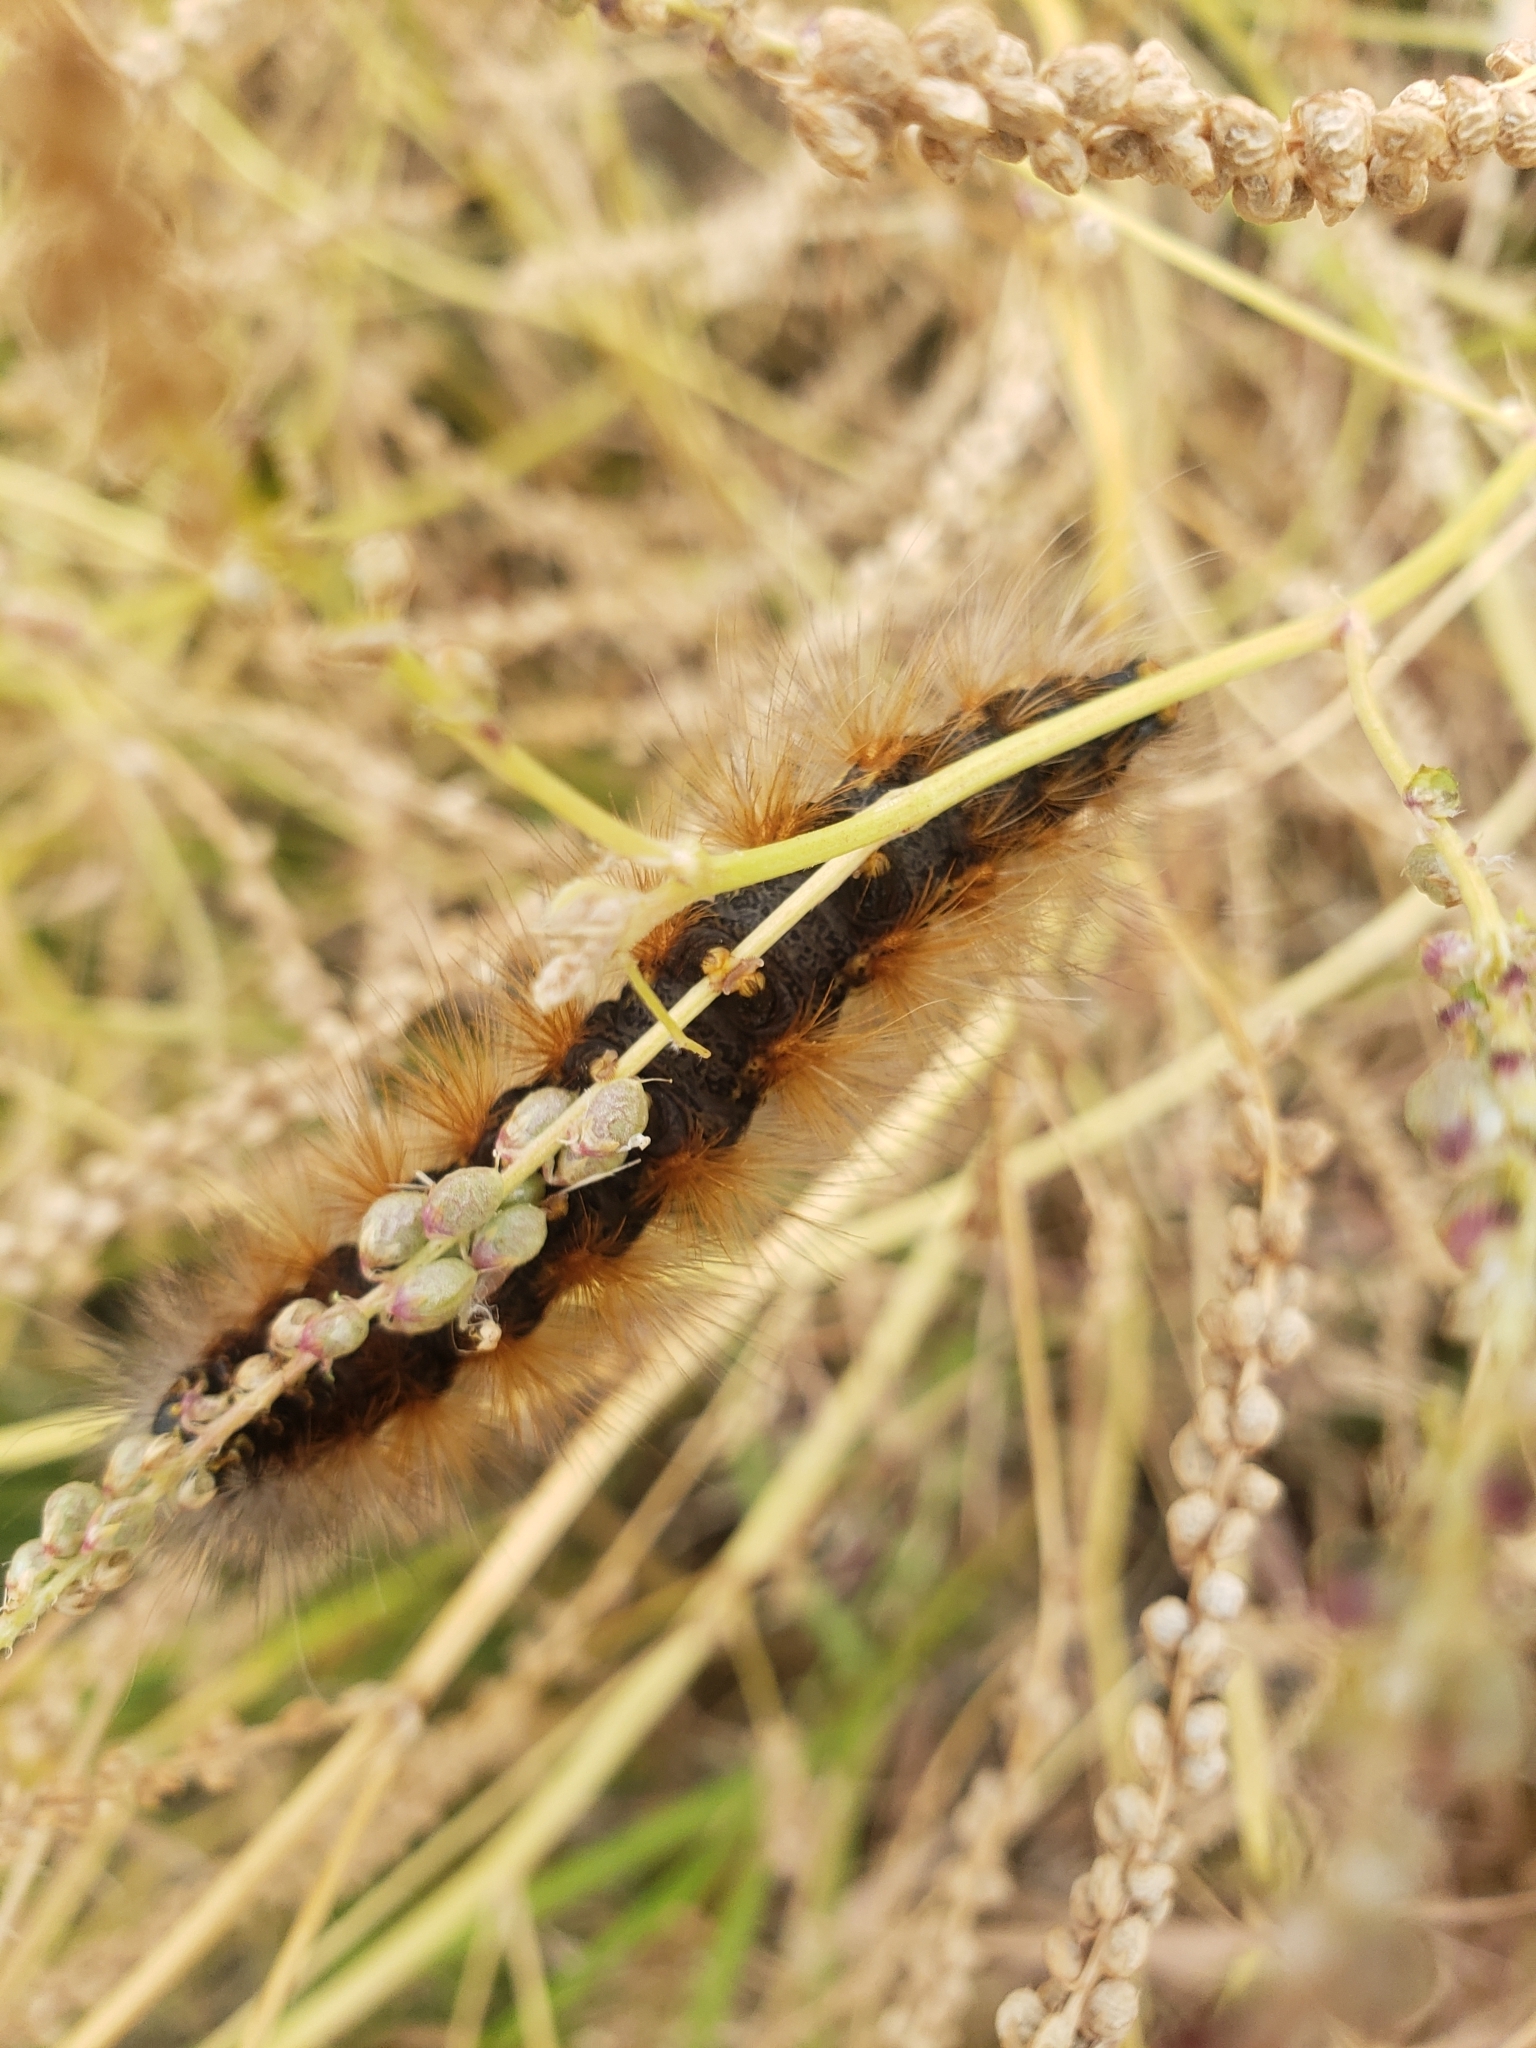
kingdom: Animalia
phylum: Arthropoda
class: Insecta
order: Lepidoptera
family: Erebidae
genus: Estigmene
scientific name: Estigmene acrea
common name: Salt marsh moth
